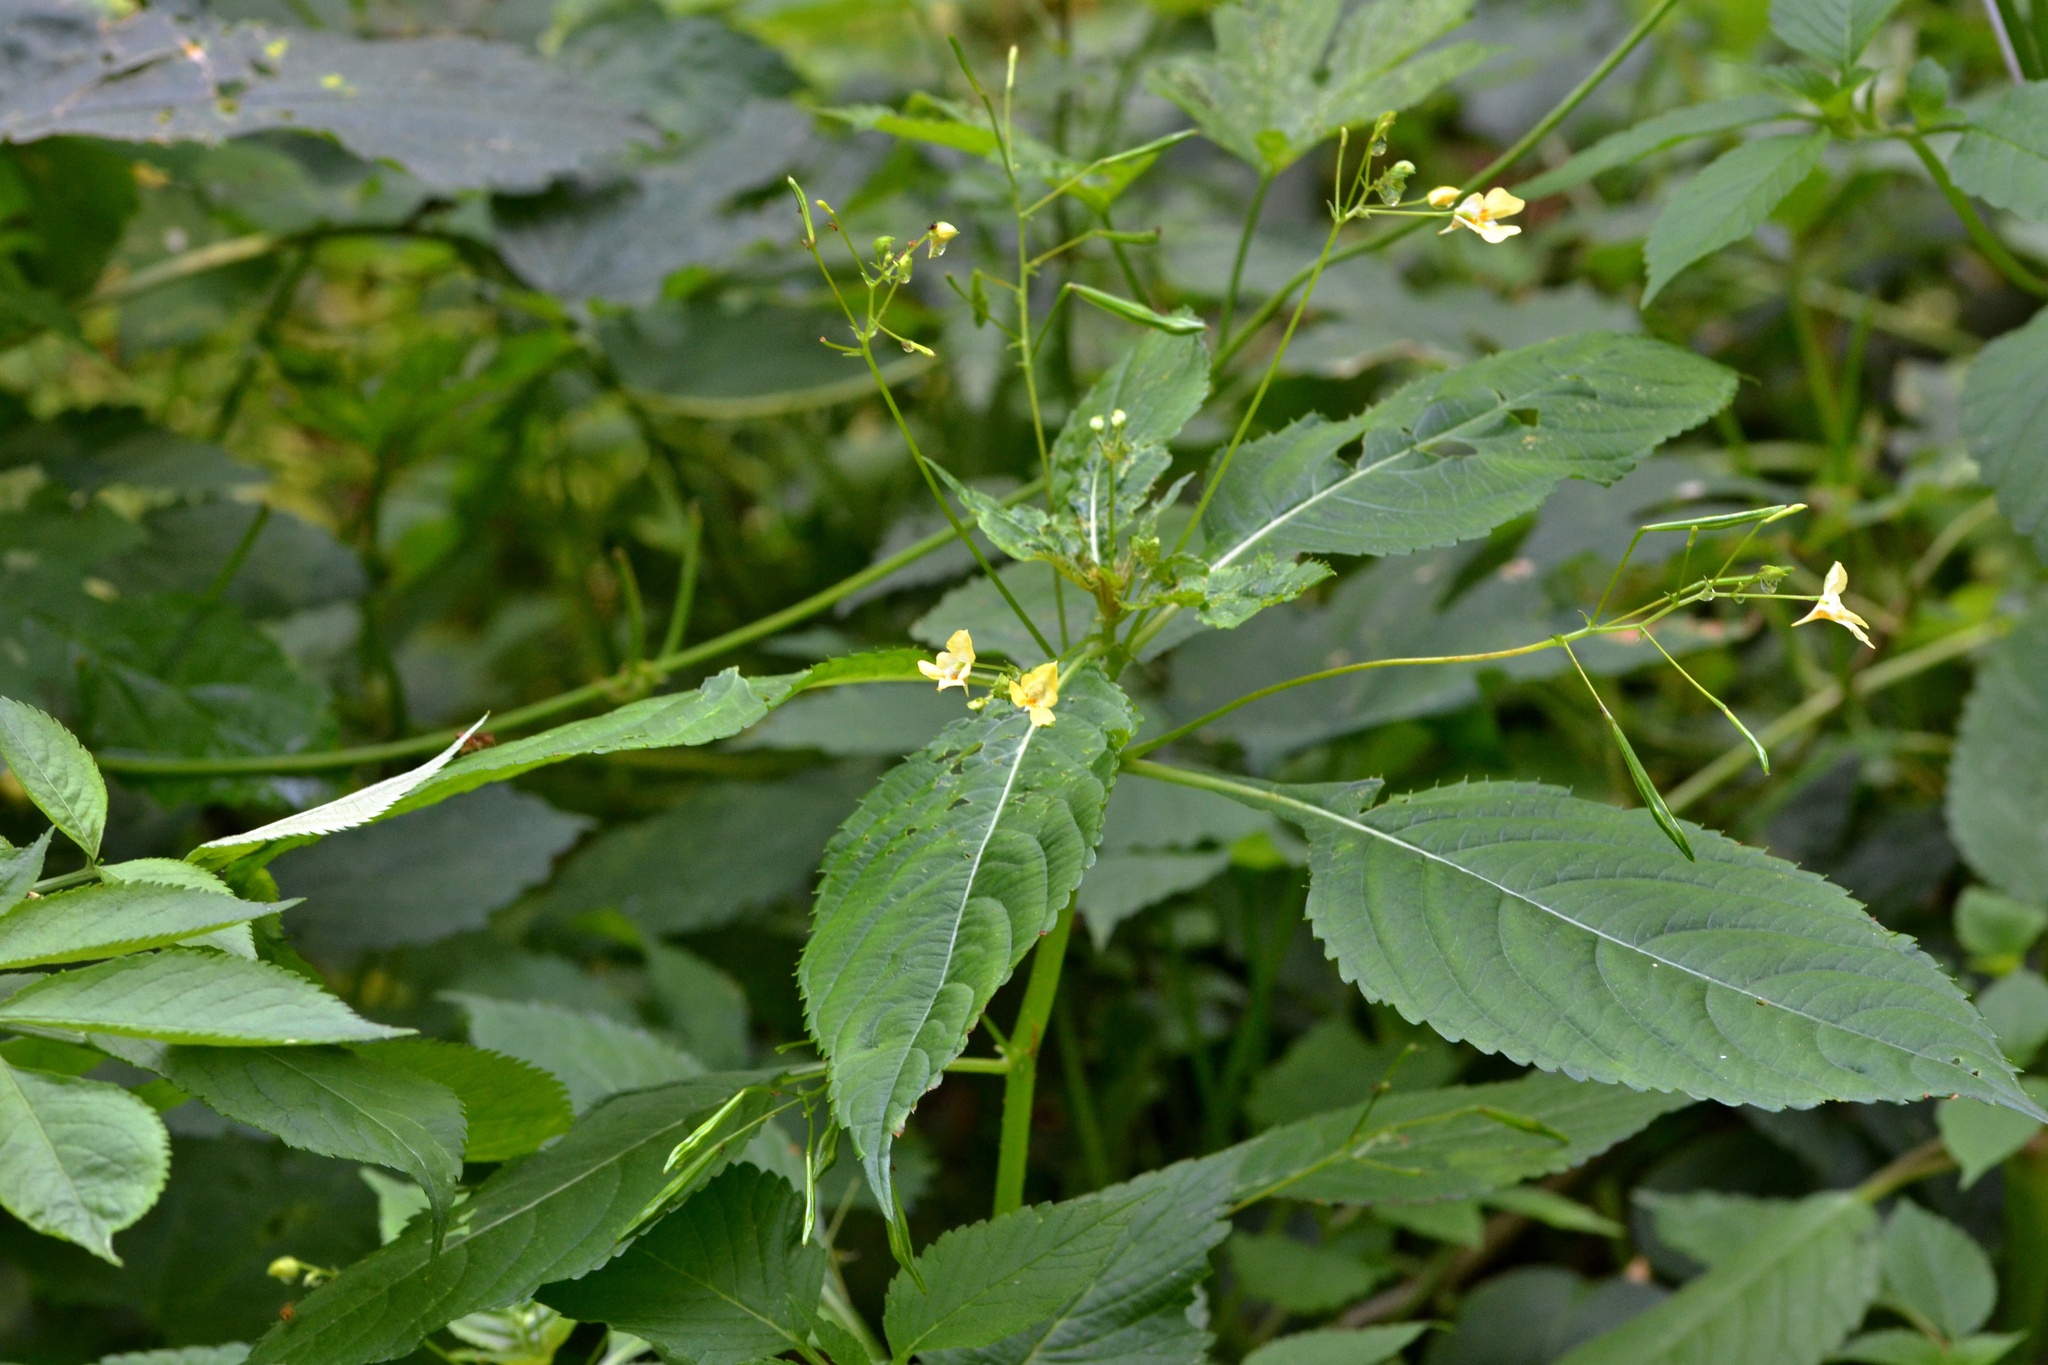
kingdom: Plantae
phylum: Tracheophyta
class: Magnoliopsida
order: Ericales
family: Balsaminaceae
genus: Impatiens
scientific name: Impatiens parviflora
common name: Small balsam
